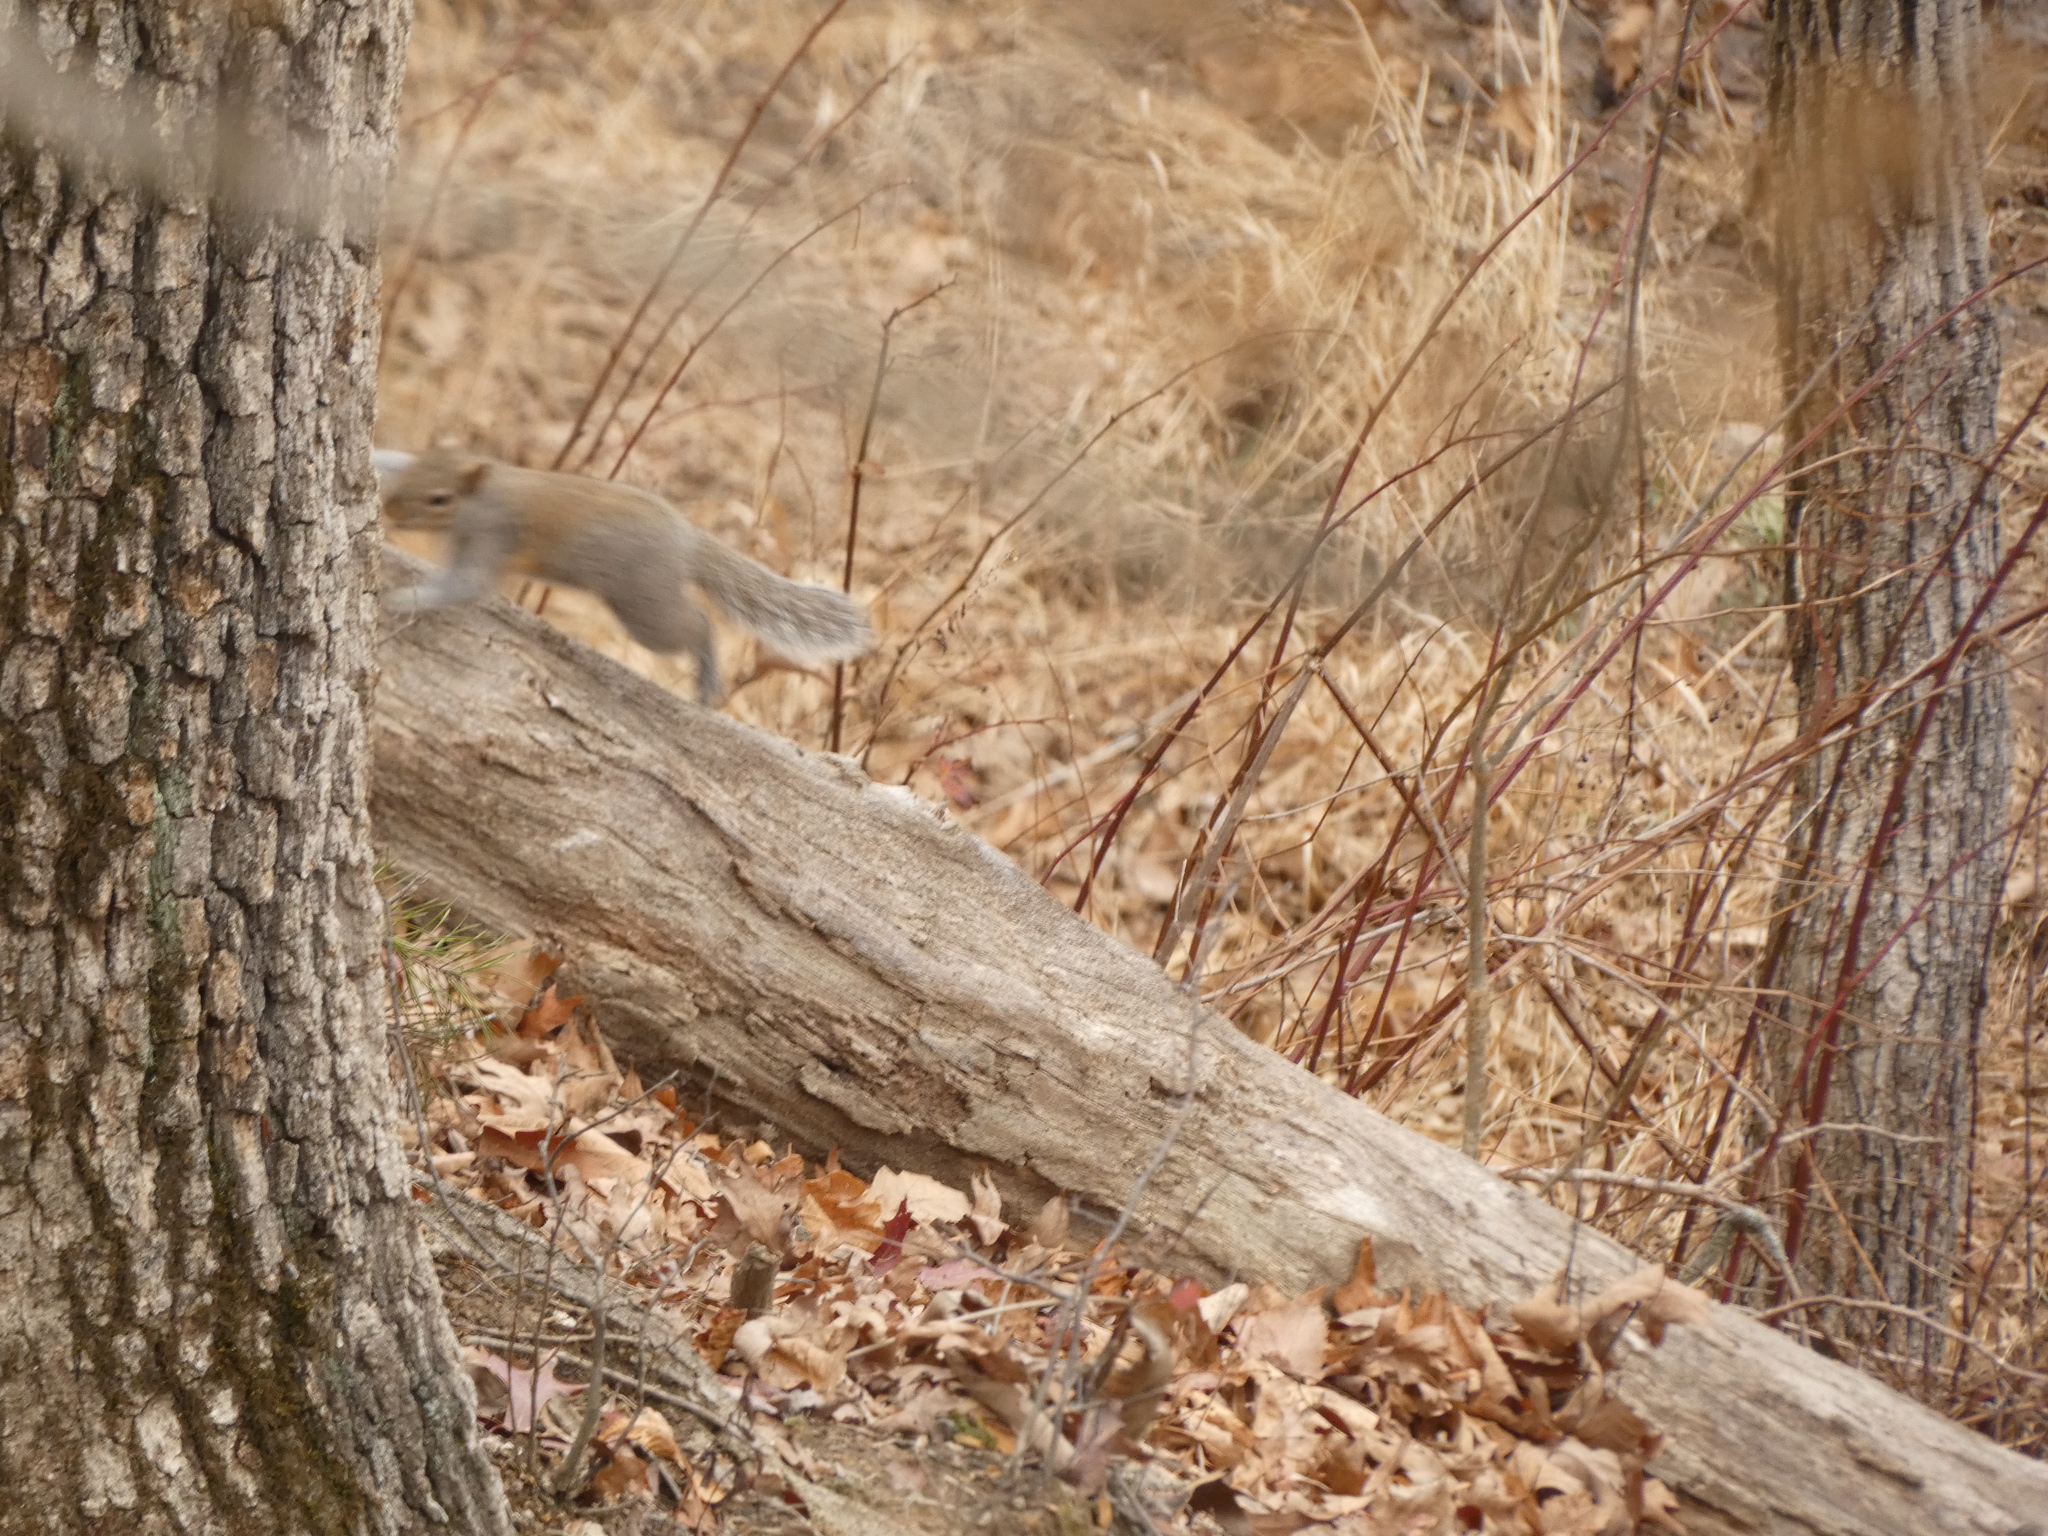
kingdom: Animalia
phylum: Chordata
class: Mammalia
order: Rodentia
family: Sciuridae
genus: Sciurus
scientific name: Sciurus carolinensis
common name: Eastern gray squirrel
